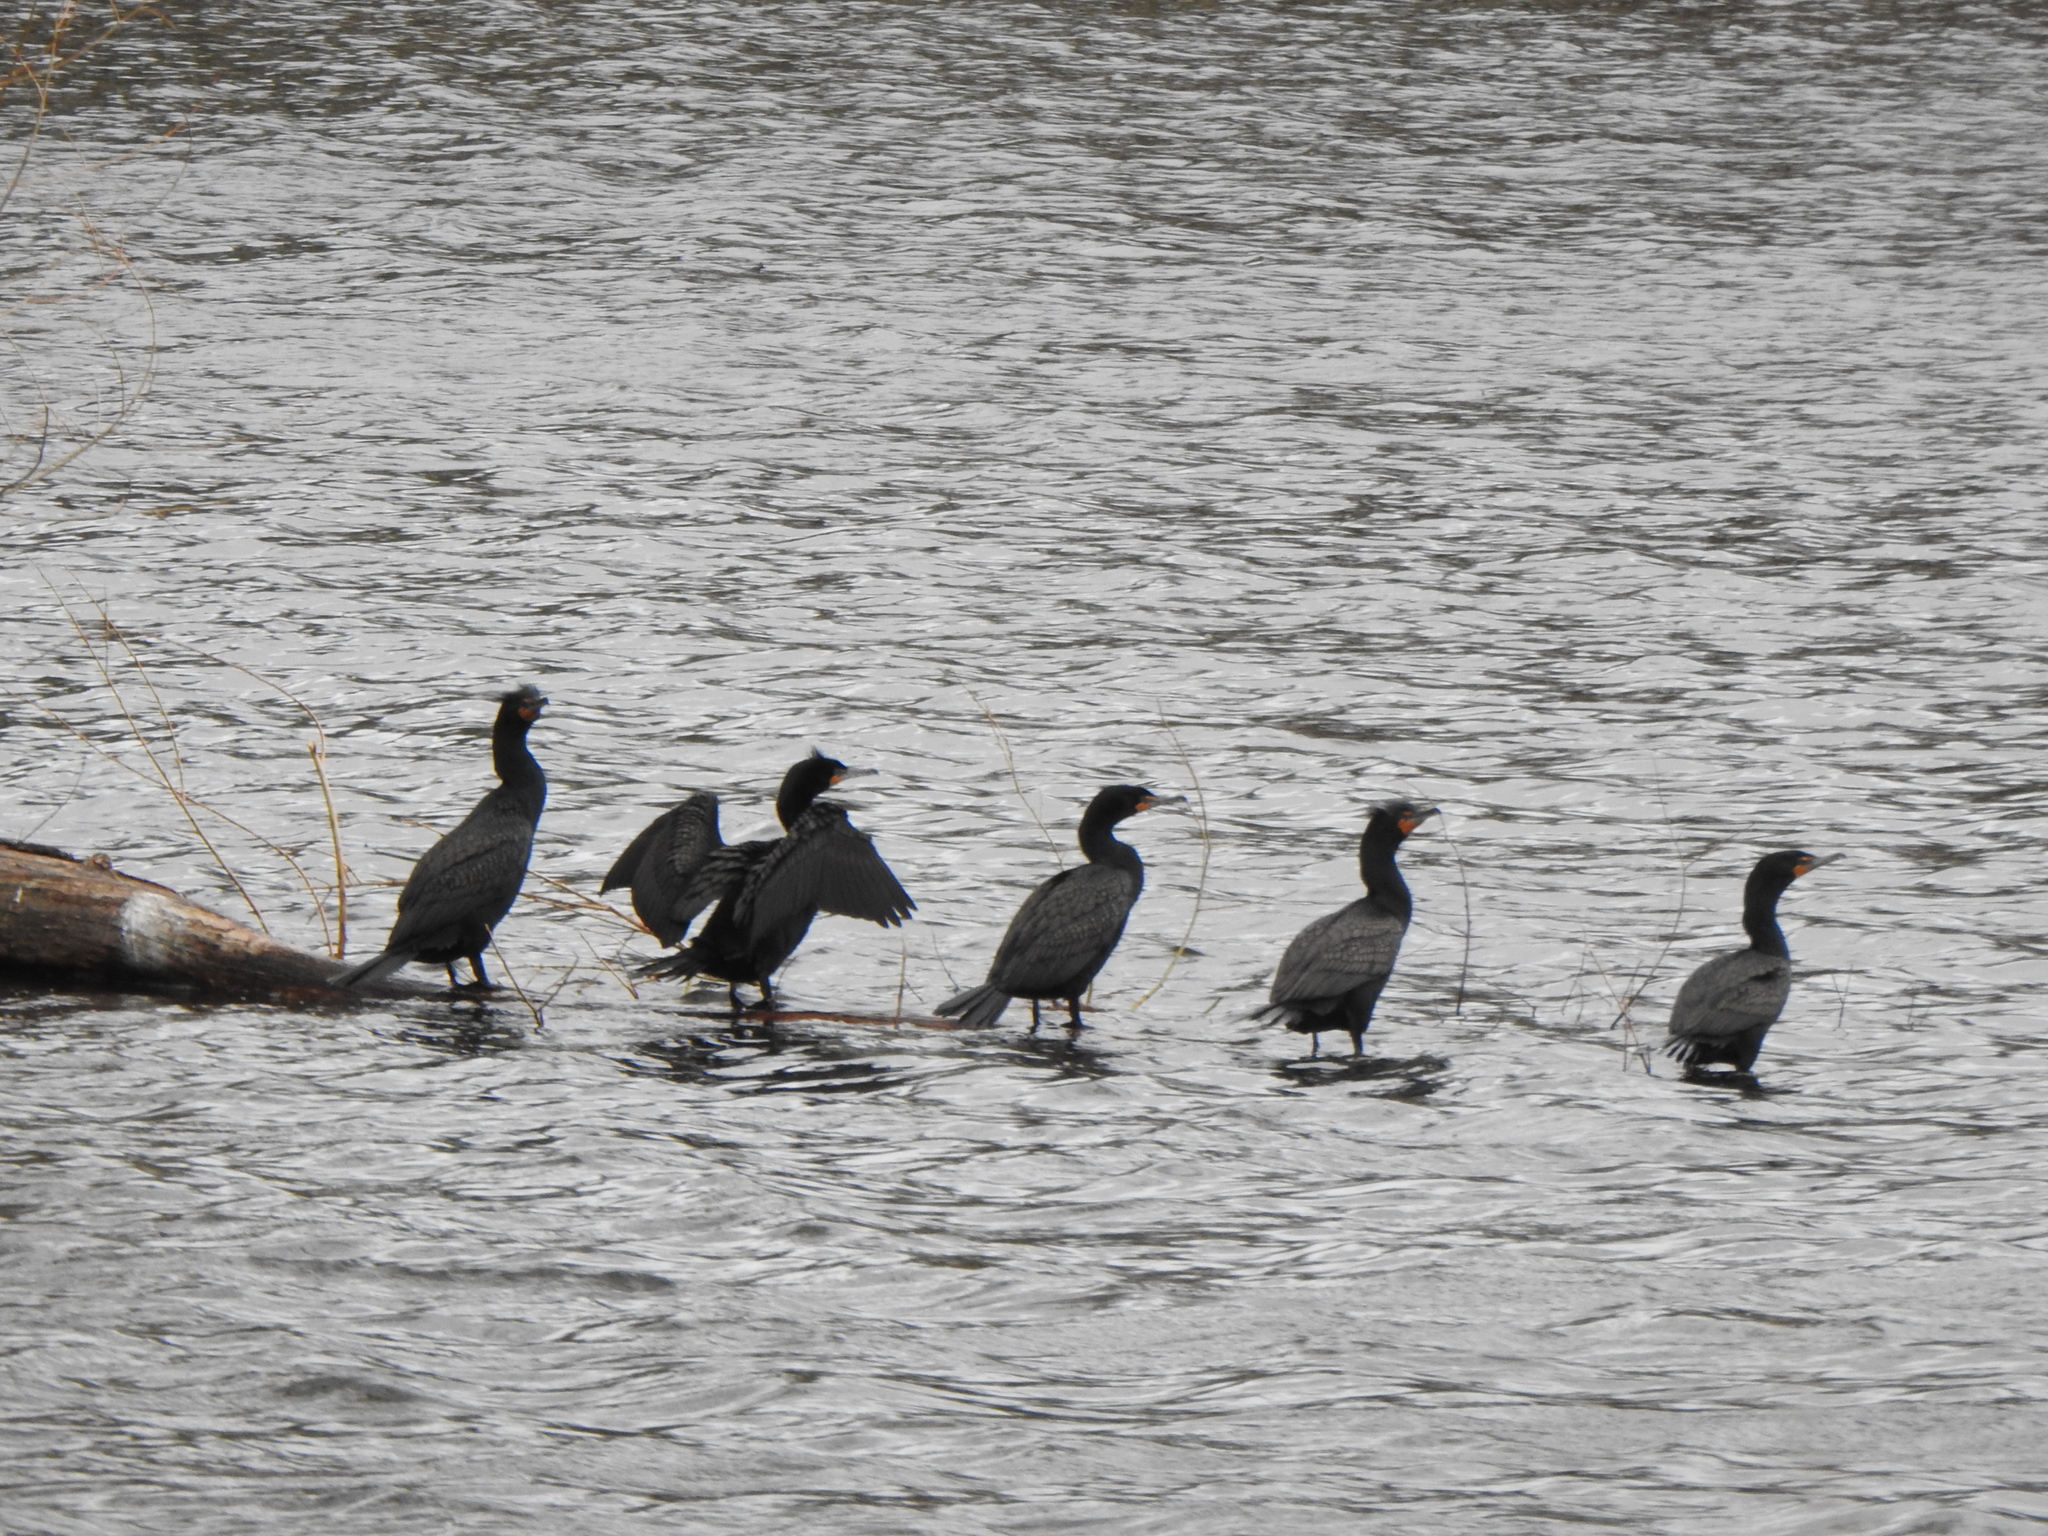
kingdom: Animalia
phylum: Chordata
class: Aves
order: Suliformes
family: Phalacrocoracidae
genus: Phalacrocorax
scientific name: Phalacrocorax auritus
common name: Double-crested cormorant
